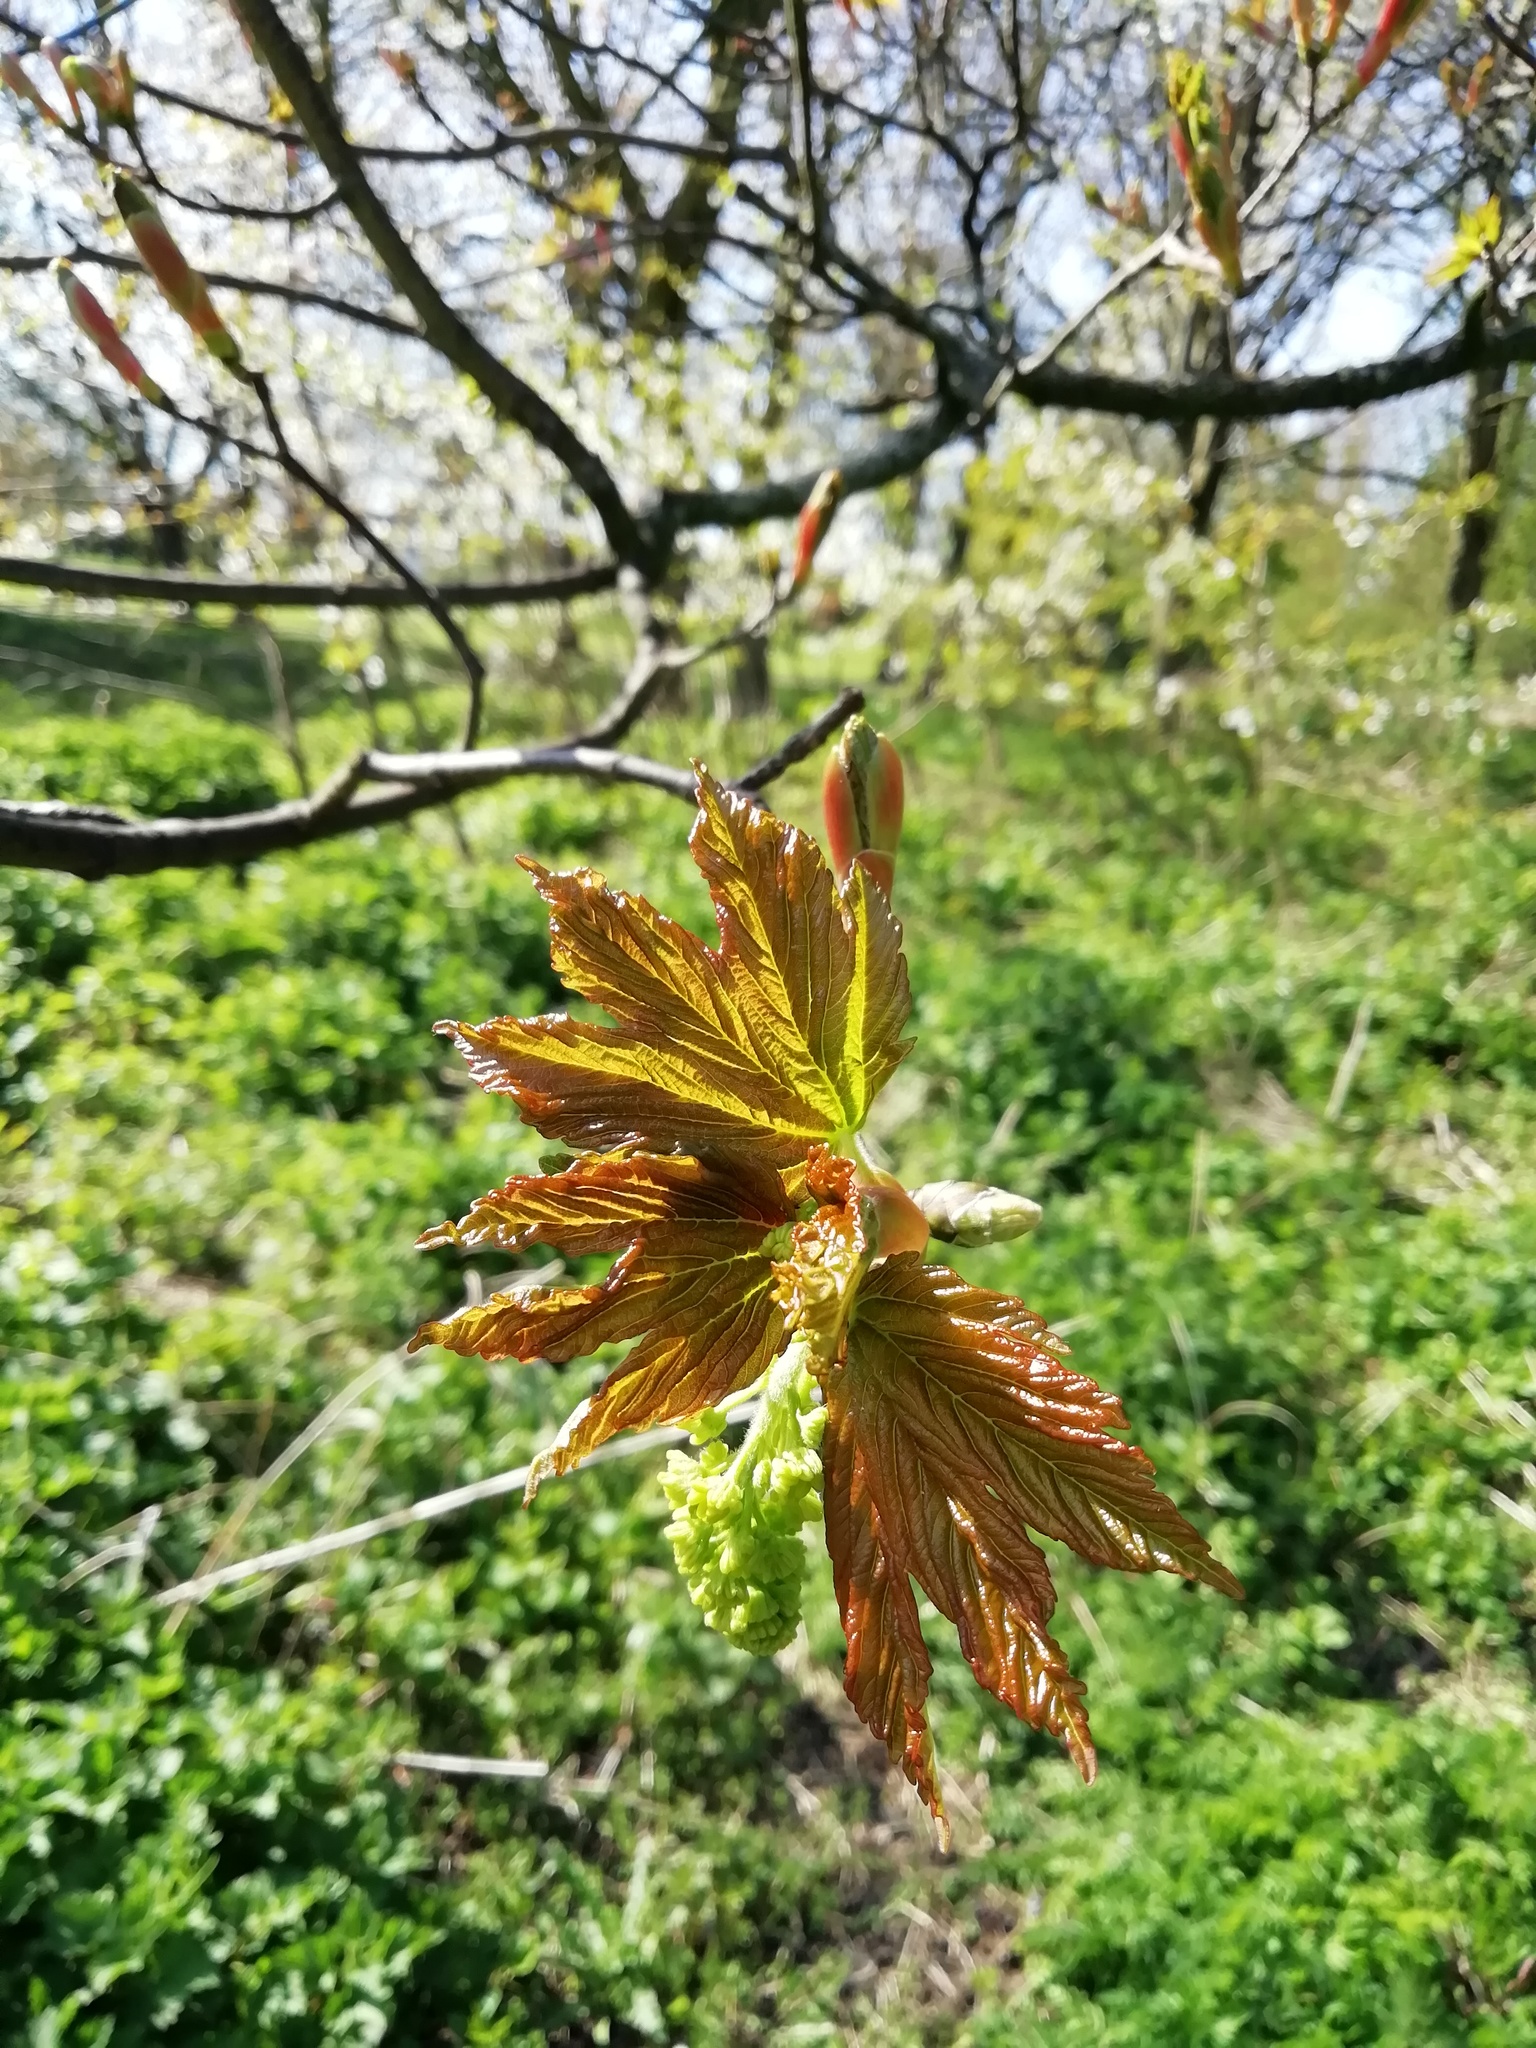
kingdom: Plantae
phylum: Tracheophyta
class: Magnoliopsida
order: Sapindales
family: Sapindaceae
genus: Acer
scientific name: Acer pseudoplatanus
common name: Sycamore
